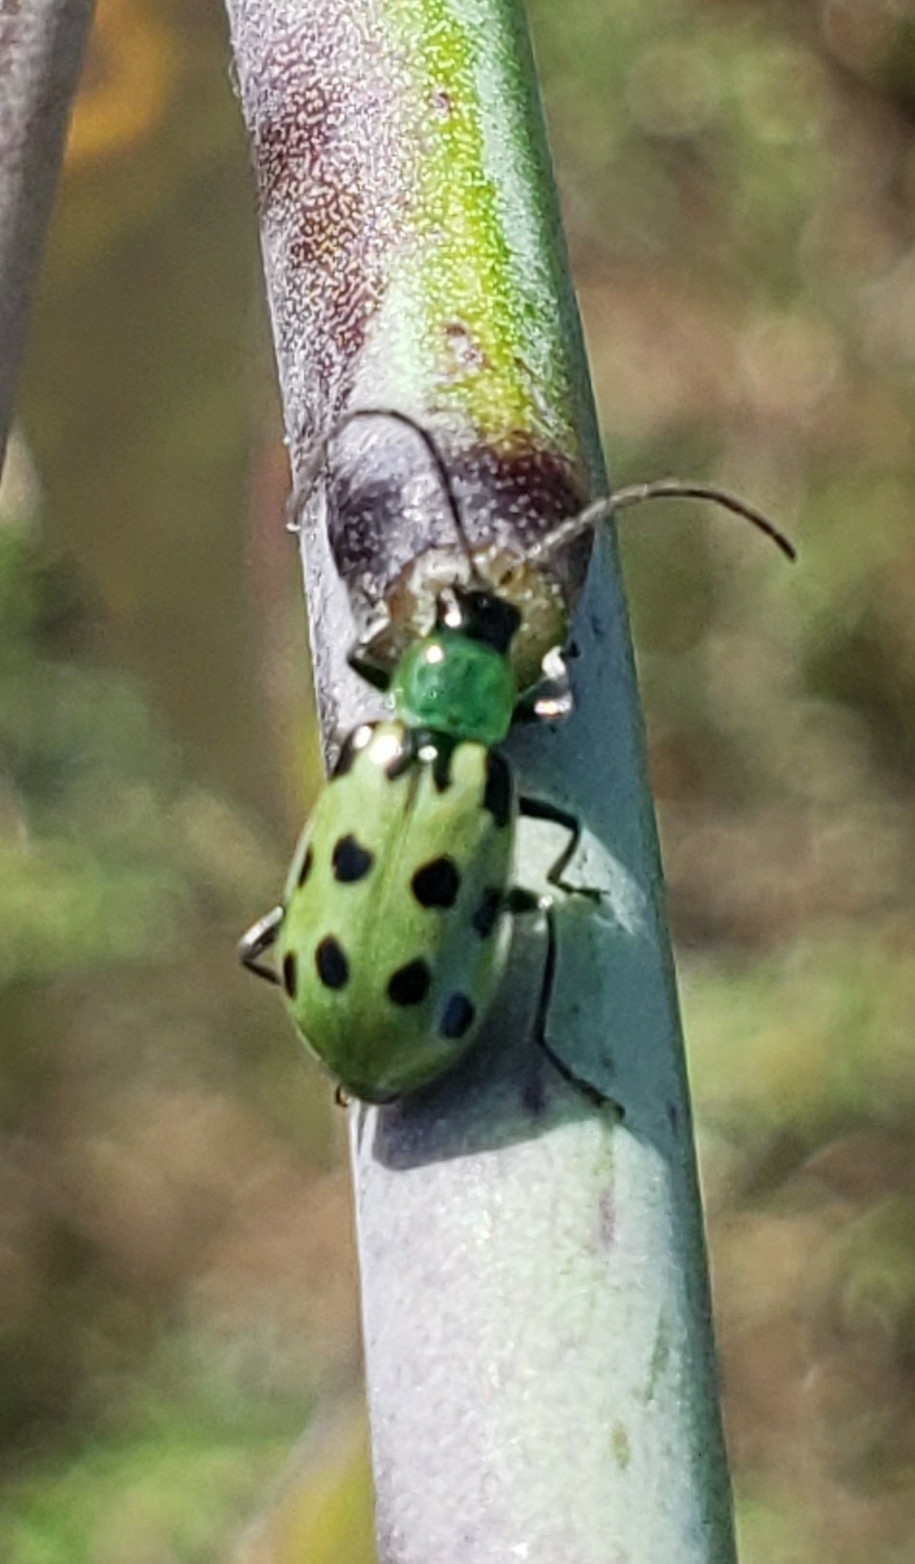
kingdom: Animalia
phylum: Arthropoda
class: Insecta
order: Coleoptera
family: Chrysomelidae
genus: Diabrotica
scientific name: Diabrotica undecimpunctata
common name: Spotted cucumber beetle
